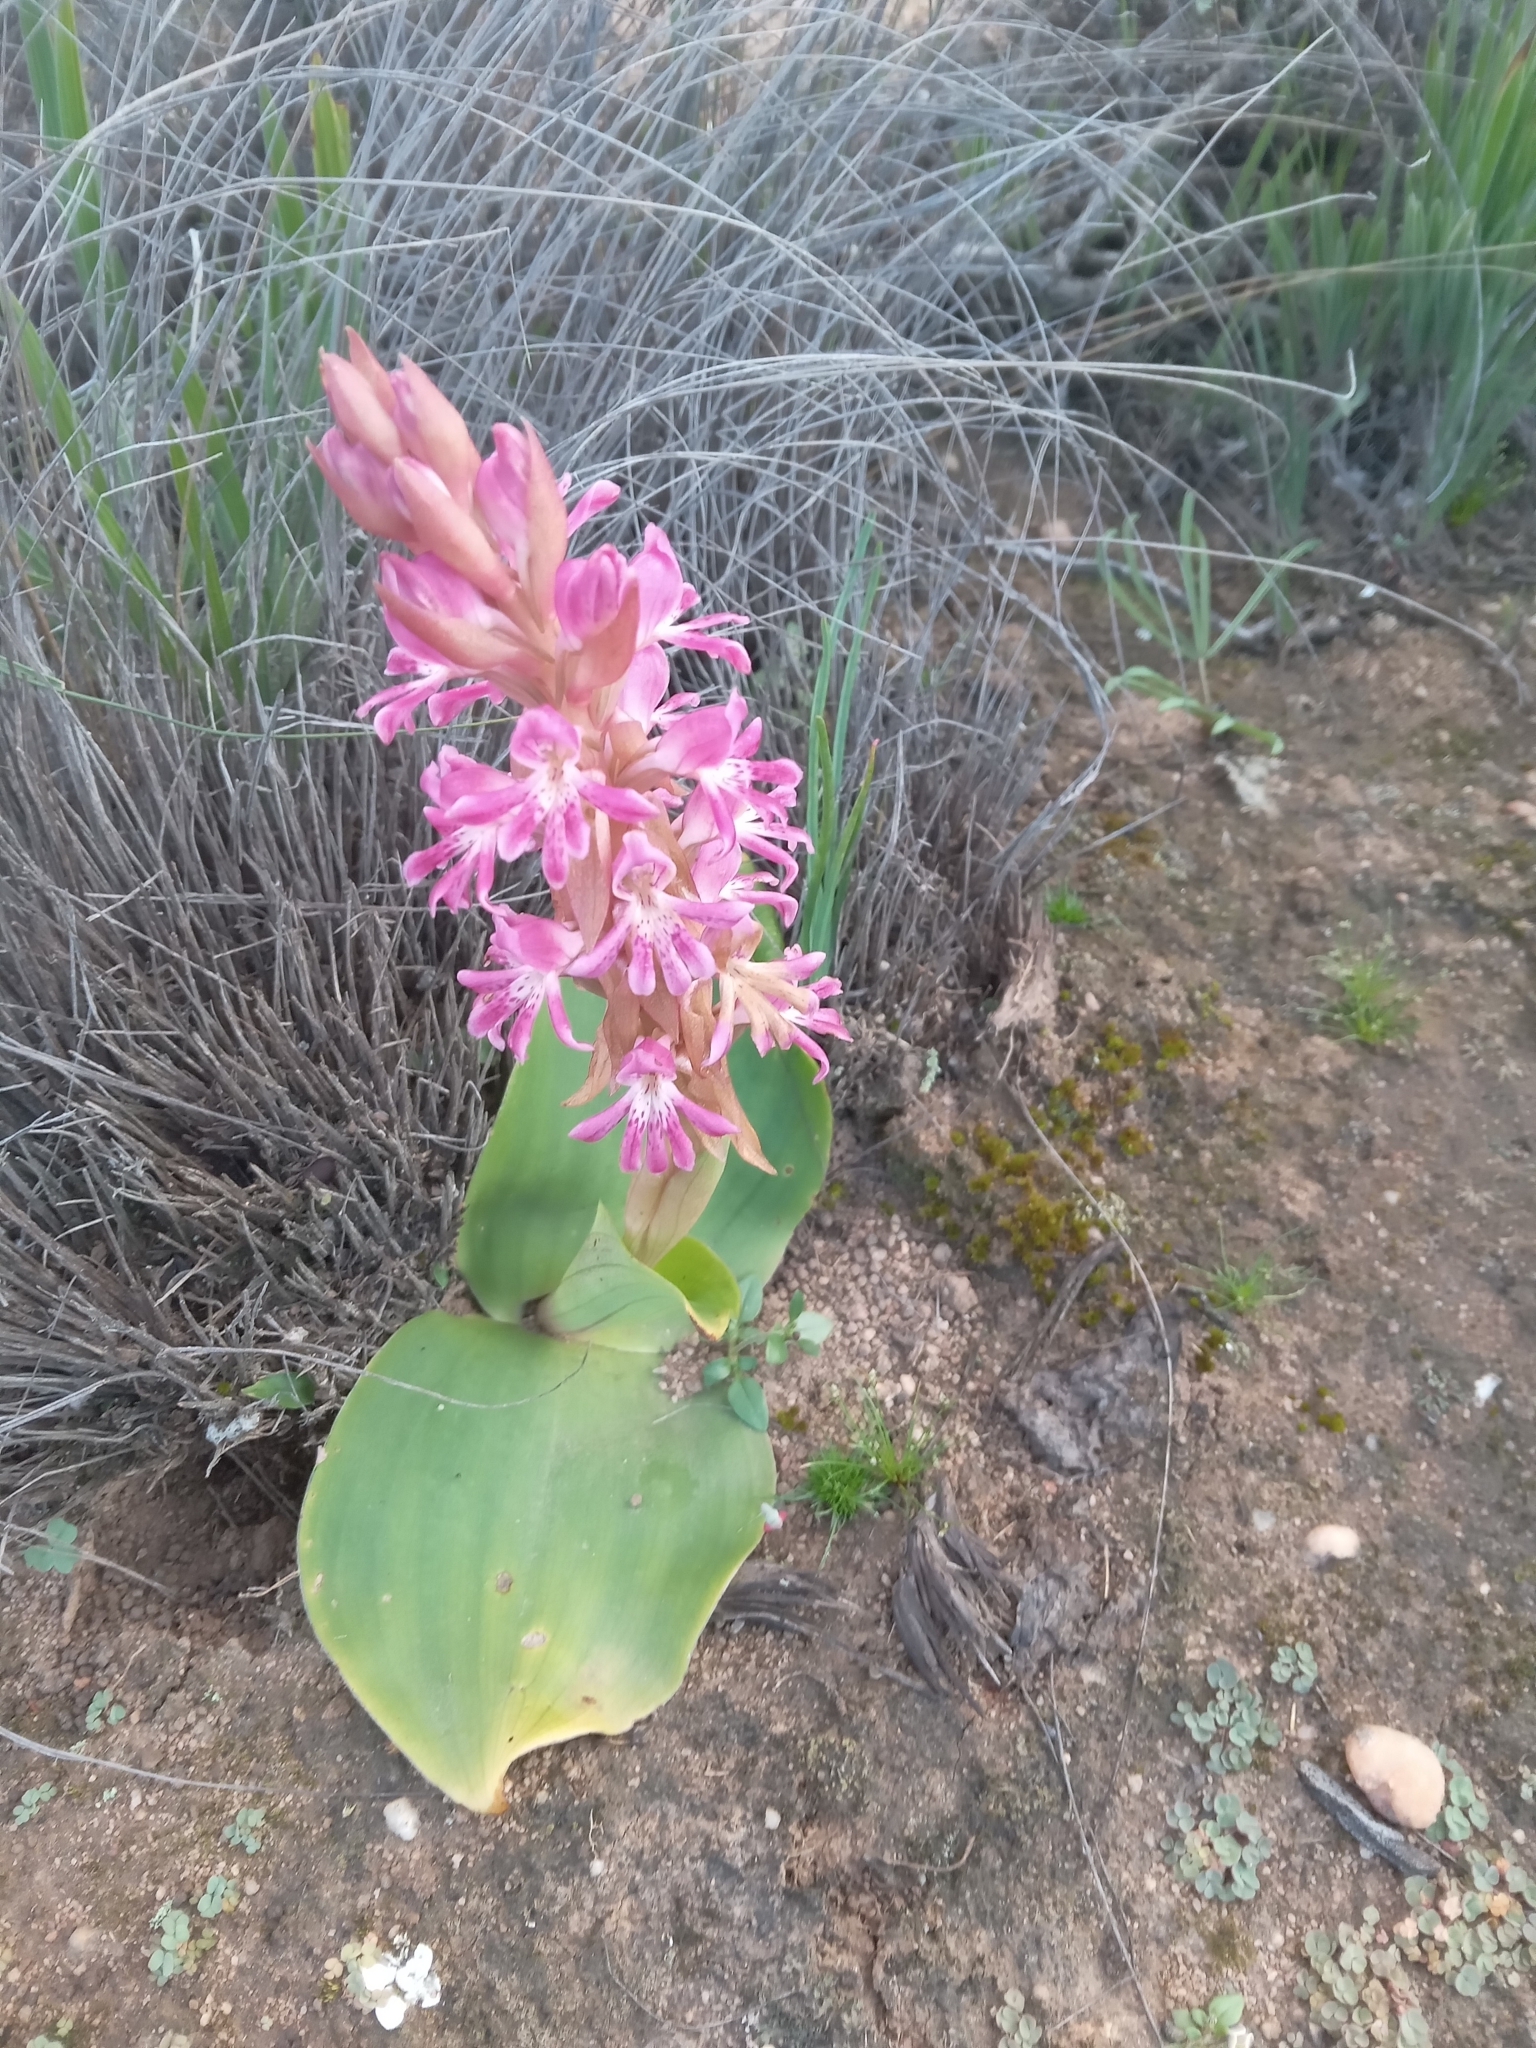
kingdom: Plantae
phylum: Tracheophyta
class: Liliopsida
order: Asparagales
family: Orchidaceae
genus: Satyrium
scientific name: Satyrium erectum
